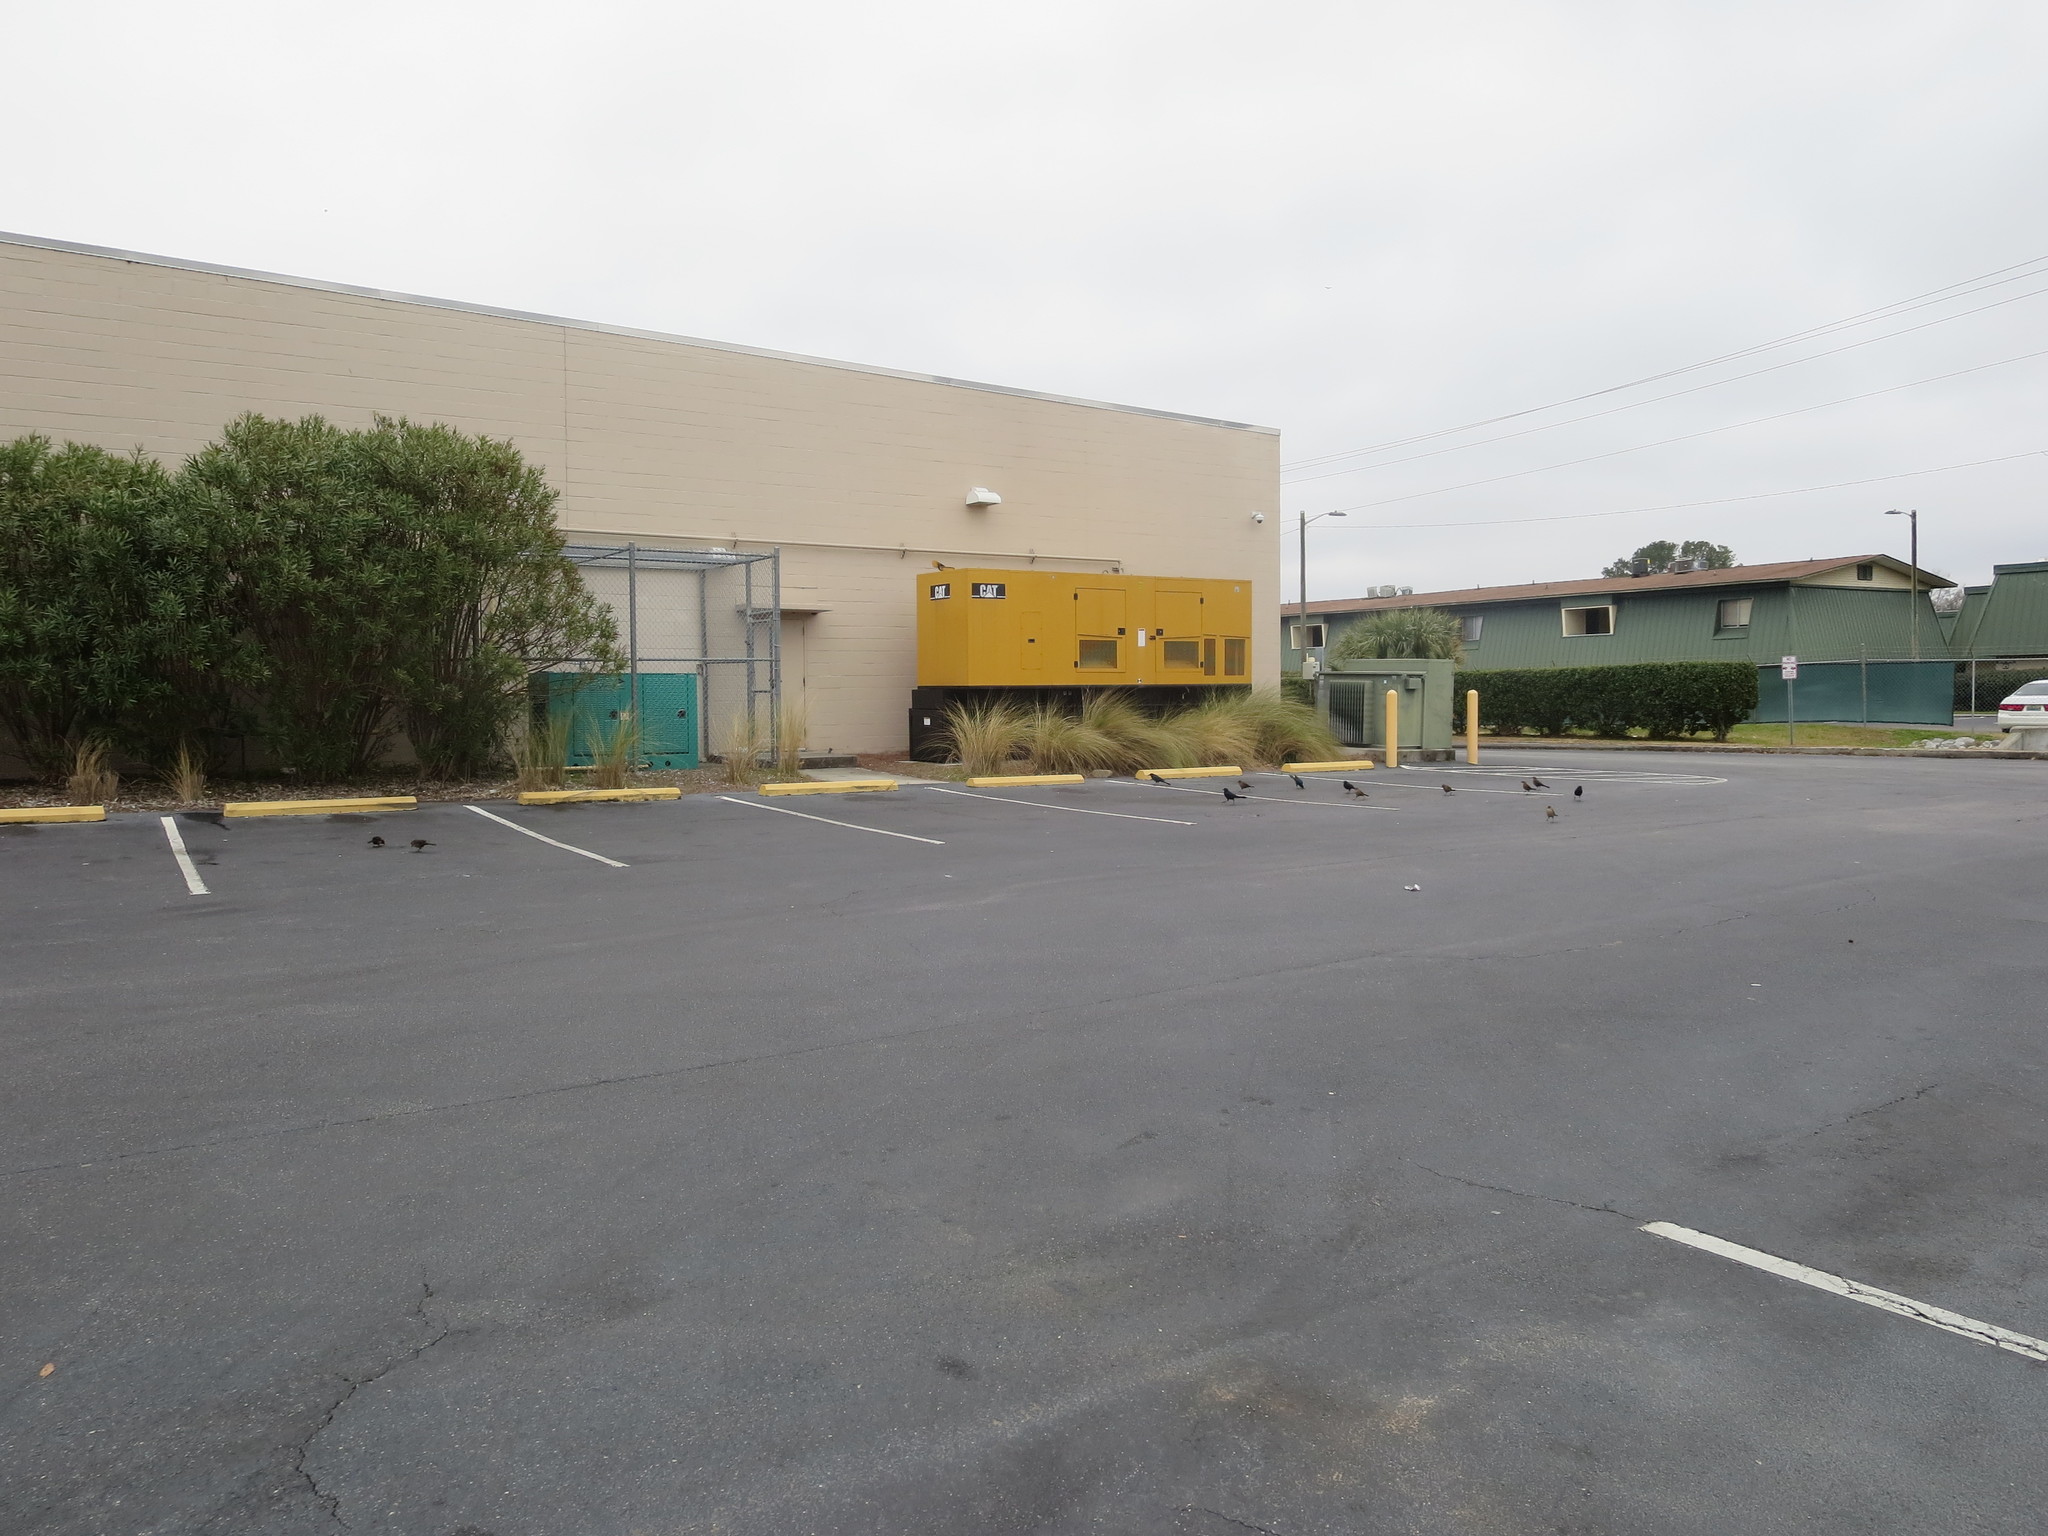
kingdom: Animalia
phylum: Chordata
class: Aves
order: Passeriformes
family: Icteridae
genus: Quiscalus
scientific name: Quiscalus major
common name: Boat-tailed grackle
